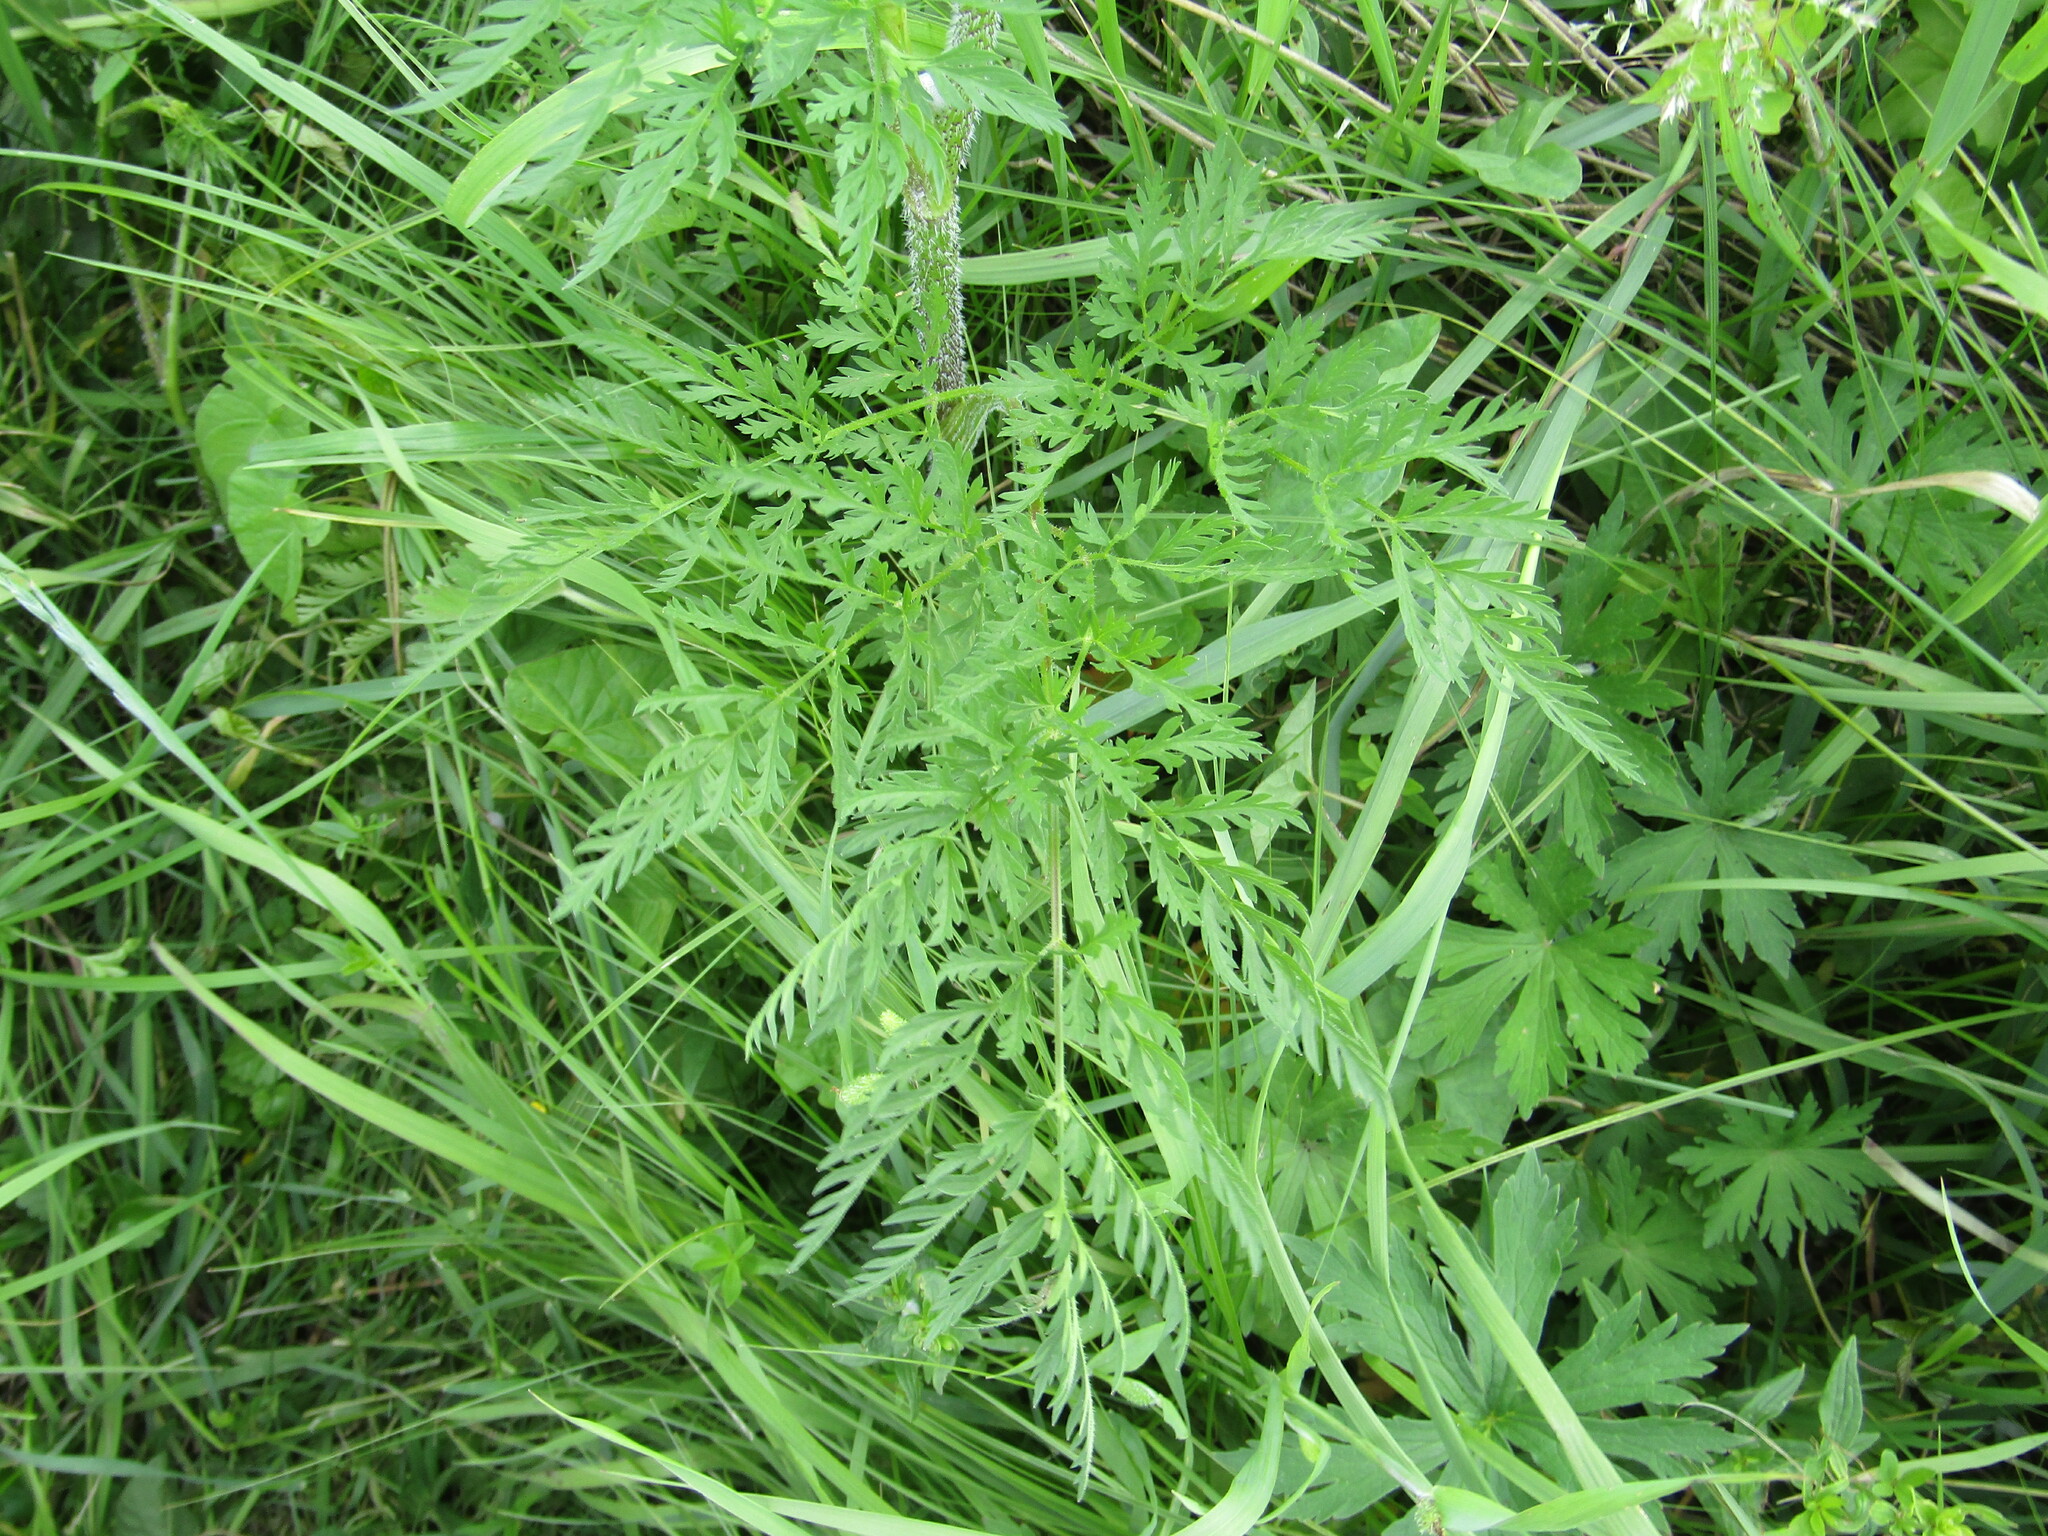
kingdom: Plantae
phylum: Tracheophyta
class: Magnoliopsida
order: Apiales
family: Apiaceae
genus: Chaerophyllum
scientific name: Chaerophyllum prescottii
